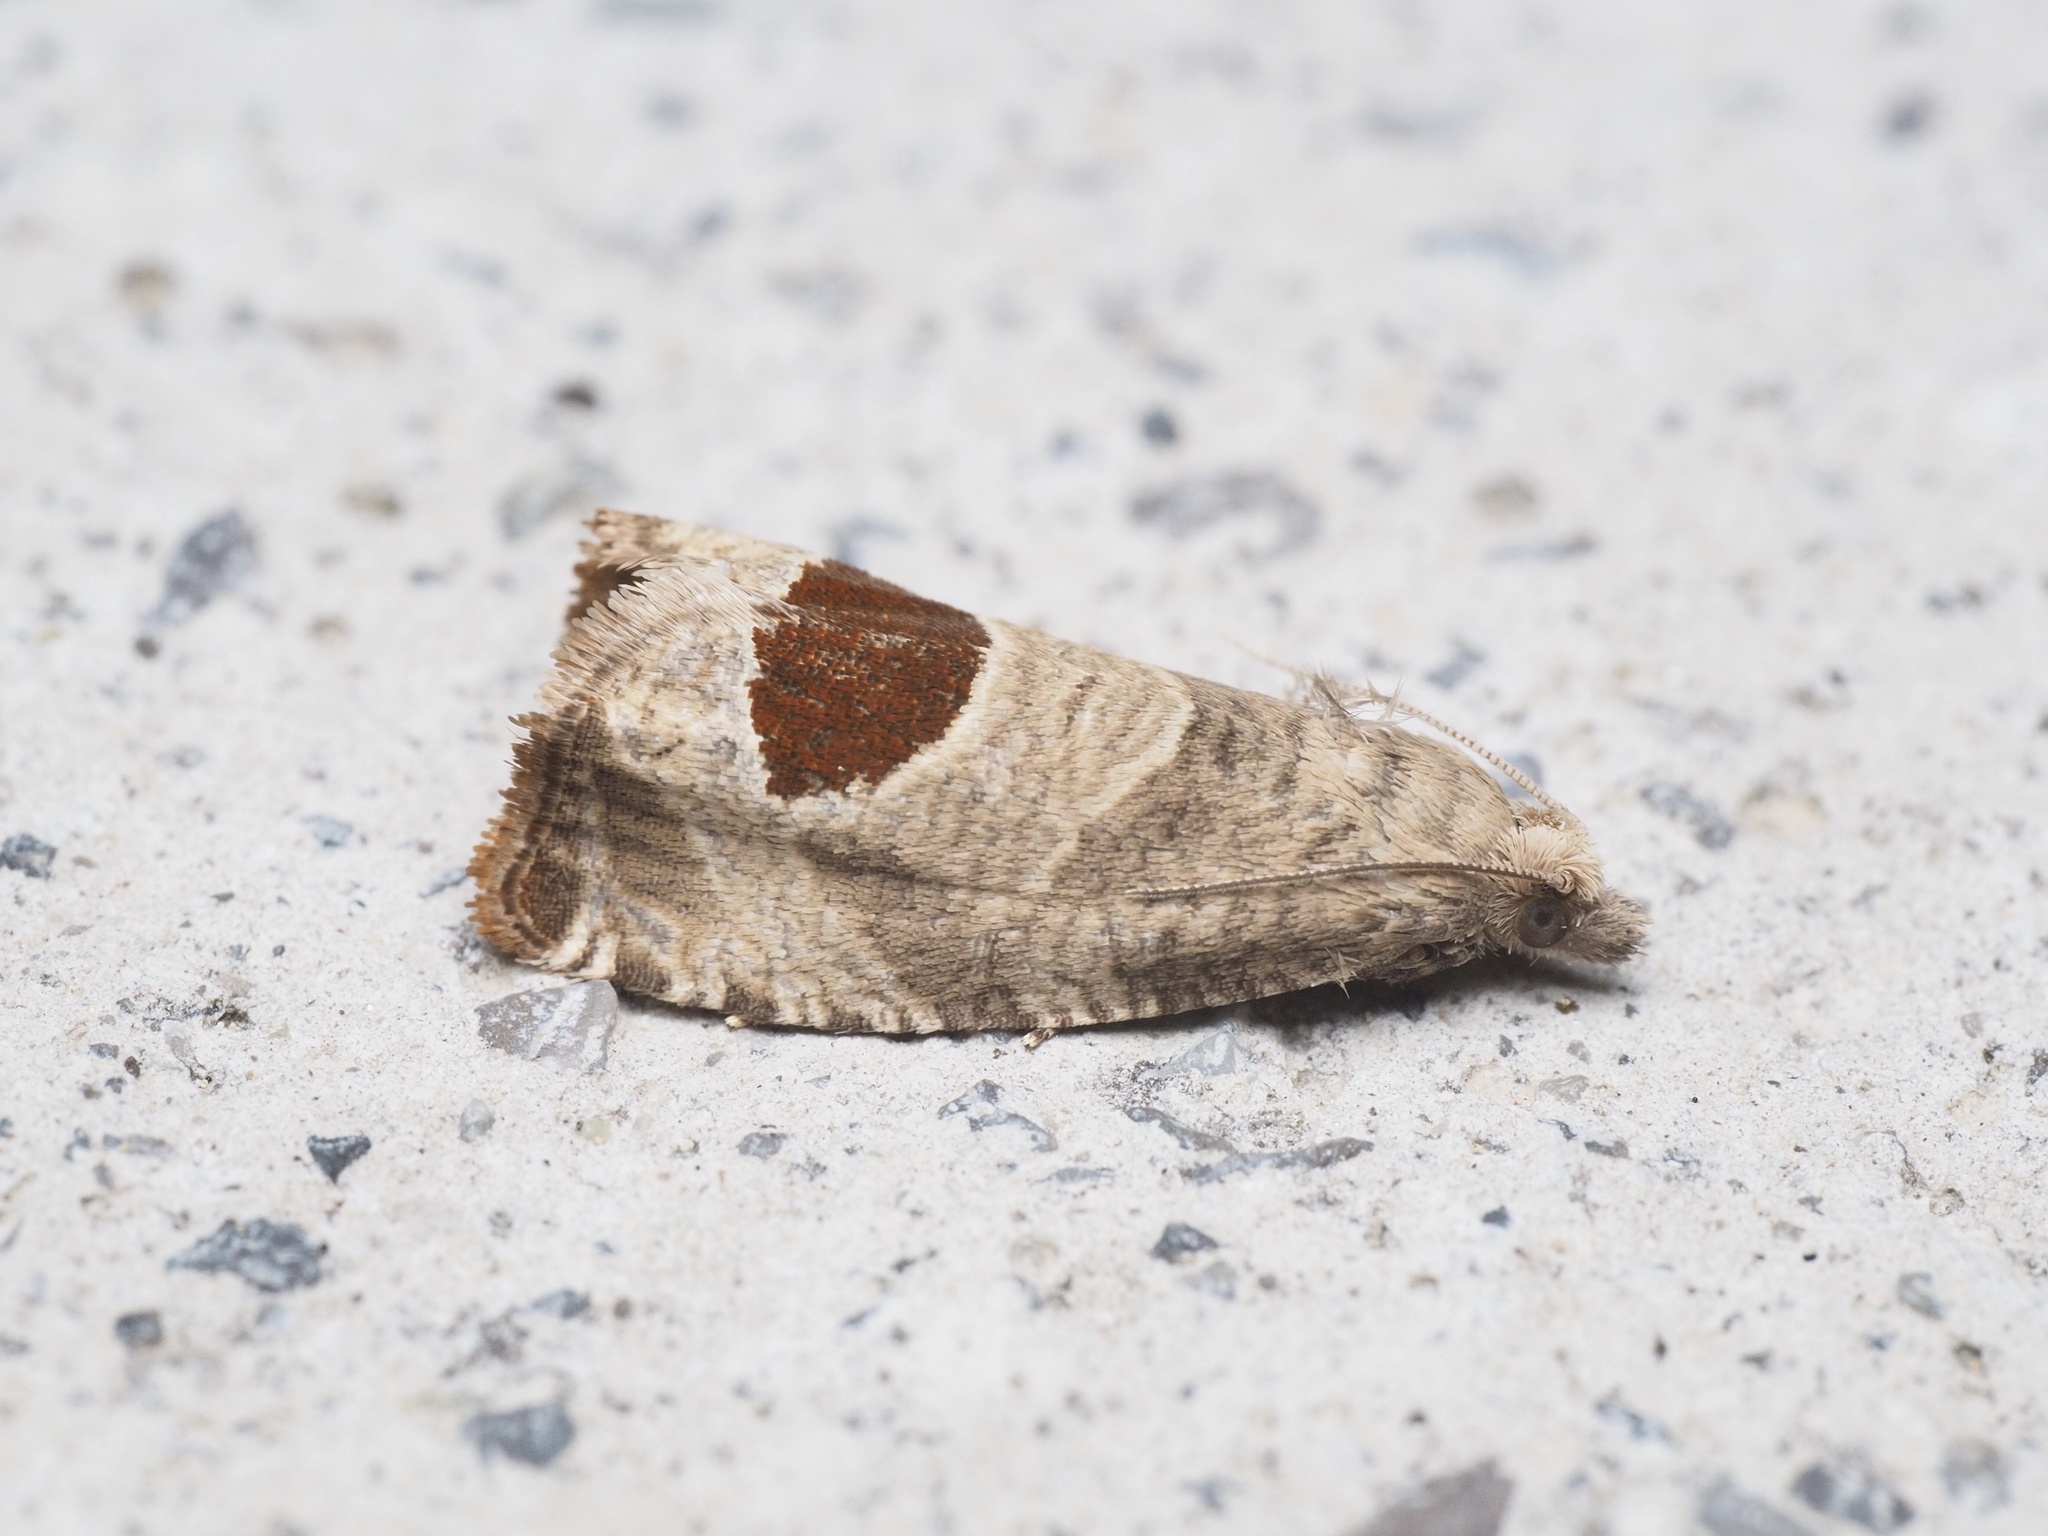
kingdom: Animalia
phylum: Arthropoda
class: Insecta
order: Lepidoptera
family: Tortricidae
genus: Notocelia
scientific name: Notocelia uddmanniana
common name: Bramble shoot moth
